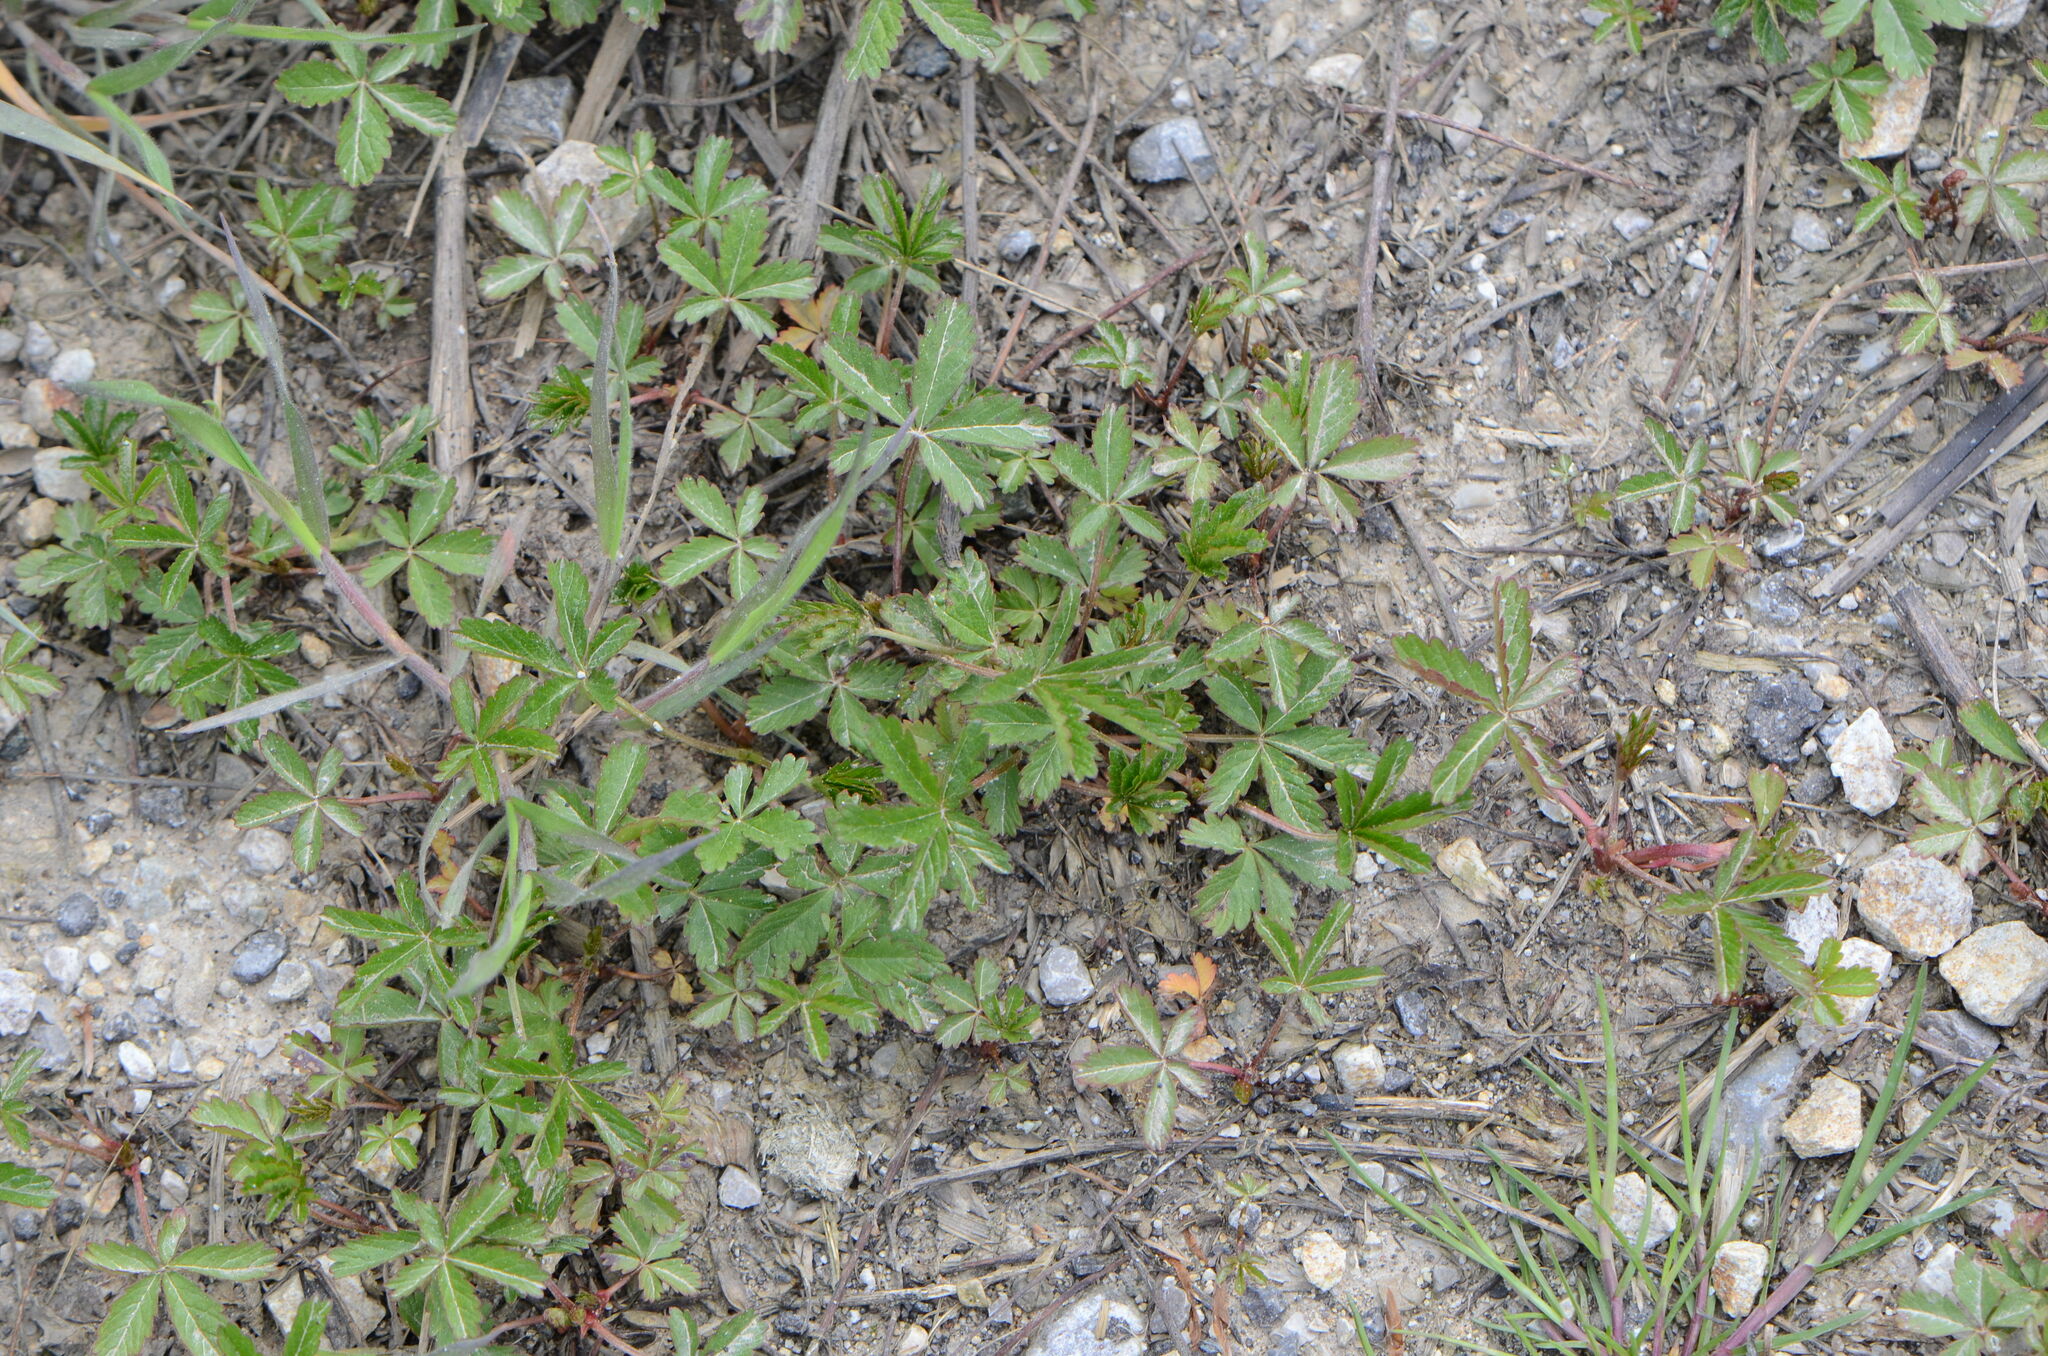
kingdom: Plantae
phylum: Tracheophyta
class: Magnoliopsida
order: Rosales
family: Rosaceae
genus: Potentilla
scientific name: Potentilla reptans
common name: Creeping cinquefoil
